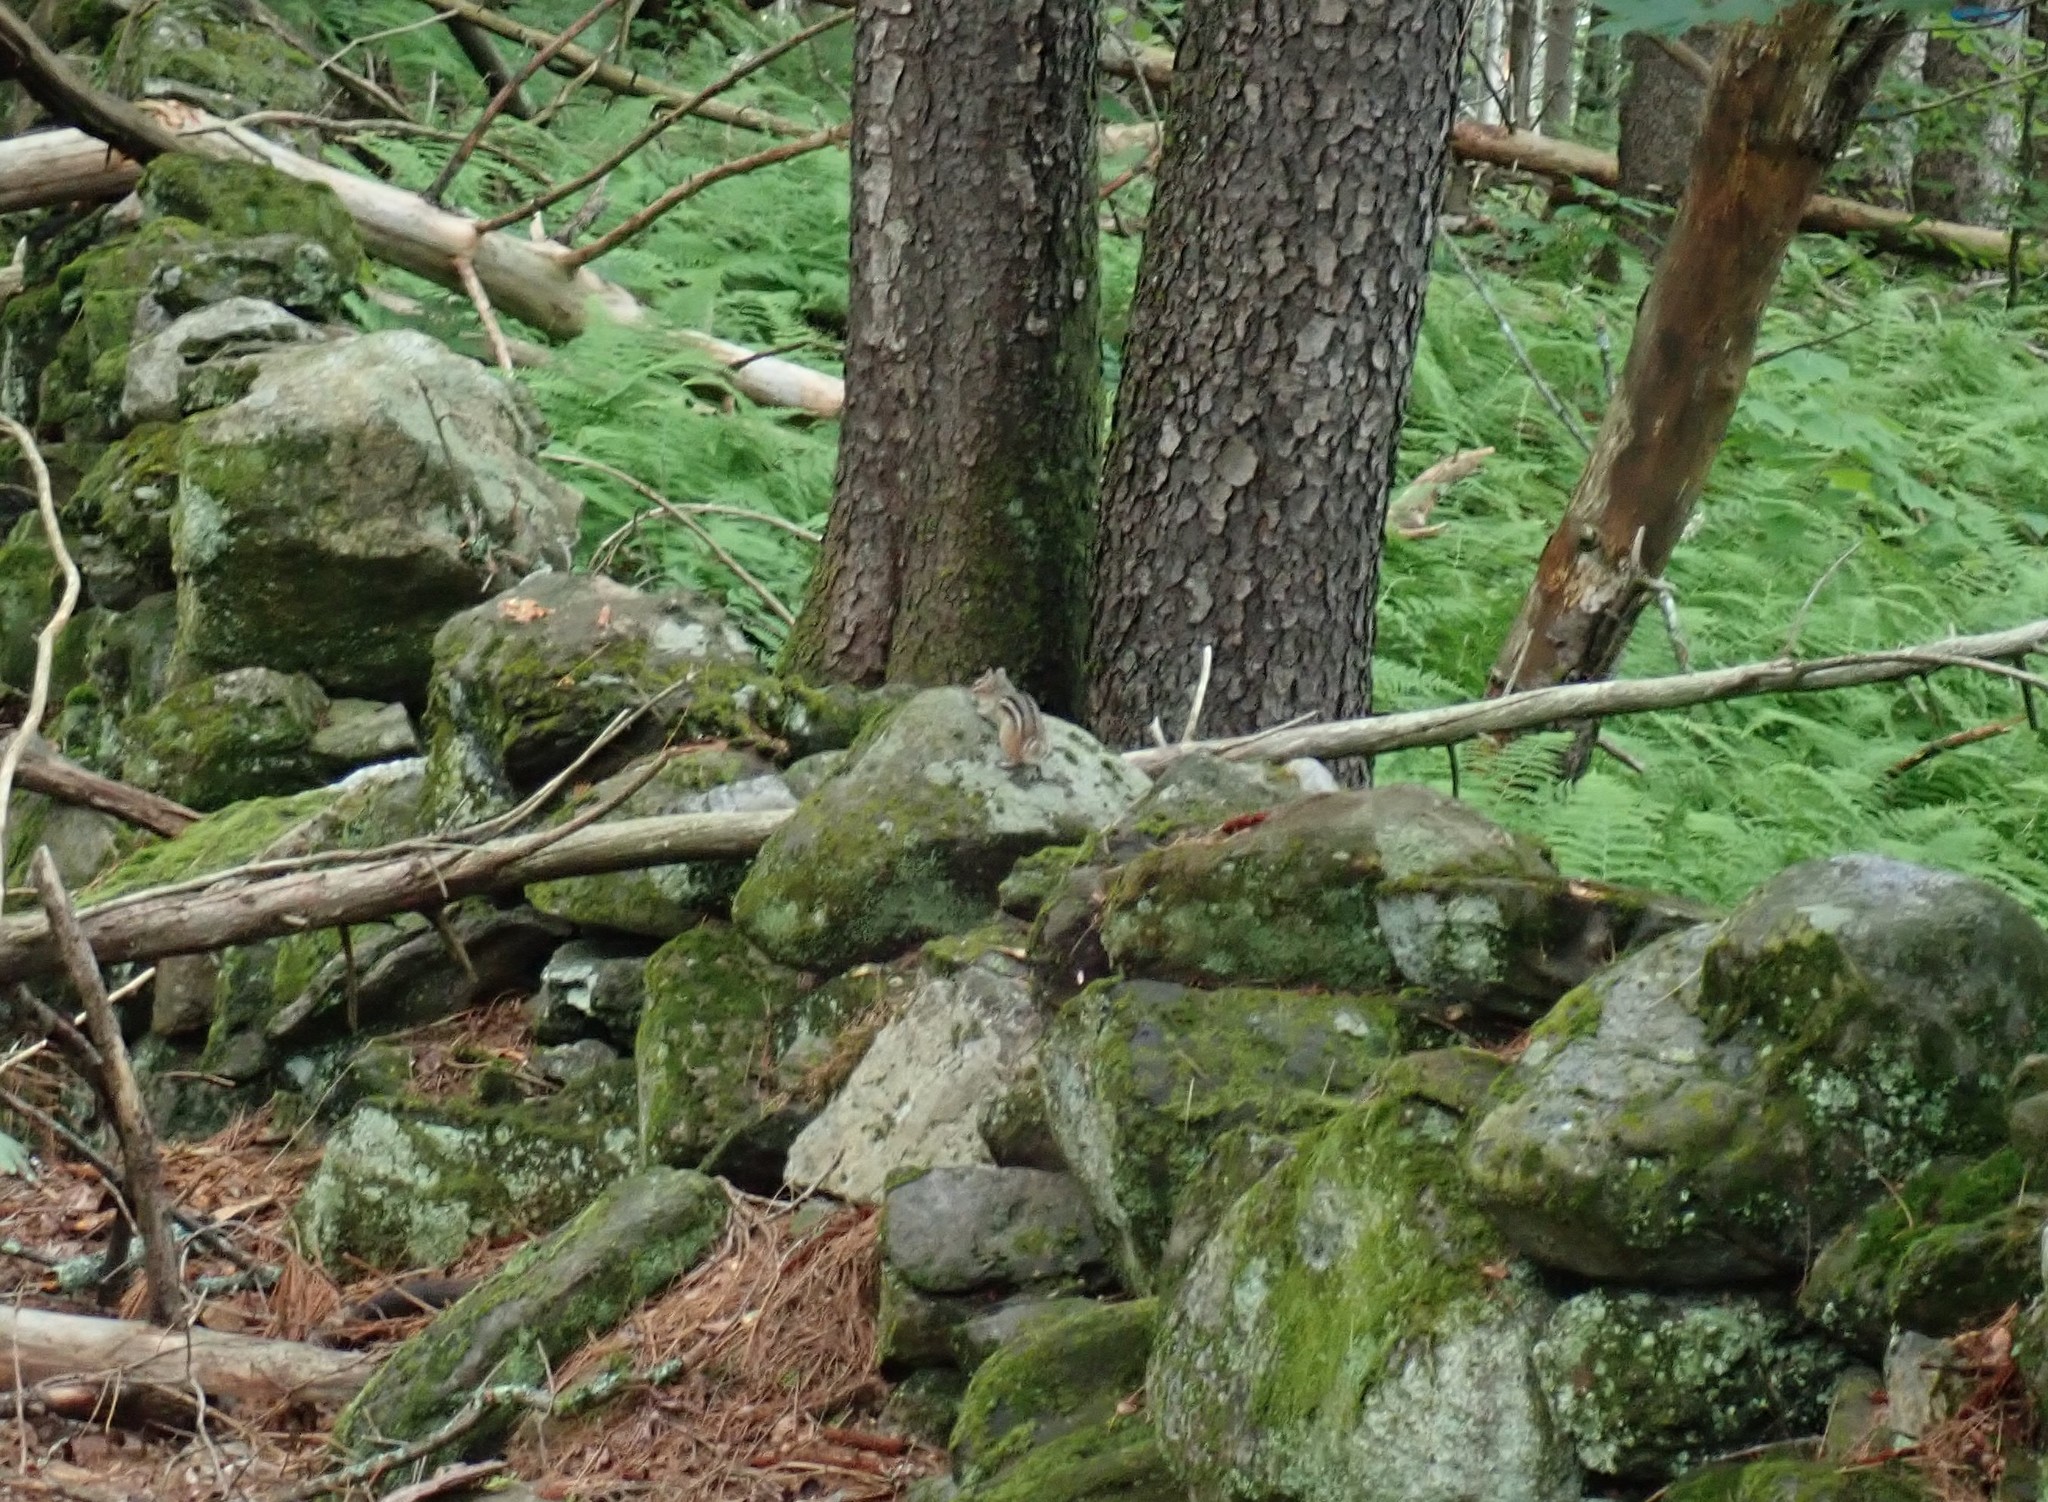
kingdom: Animalia
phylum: Chordata
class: Mammalia
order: Rodentia
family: Sciuridae
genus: Tamias
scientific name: Tamias striatus
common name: Eastern chipmunk
